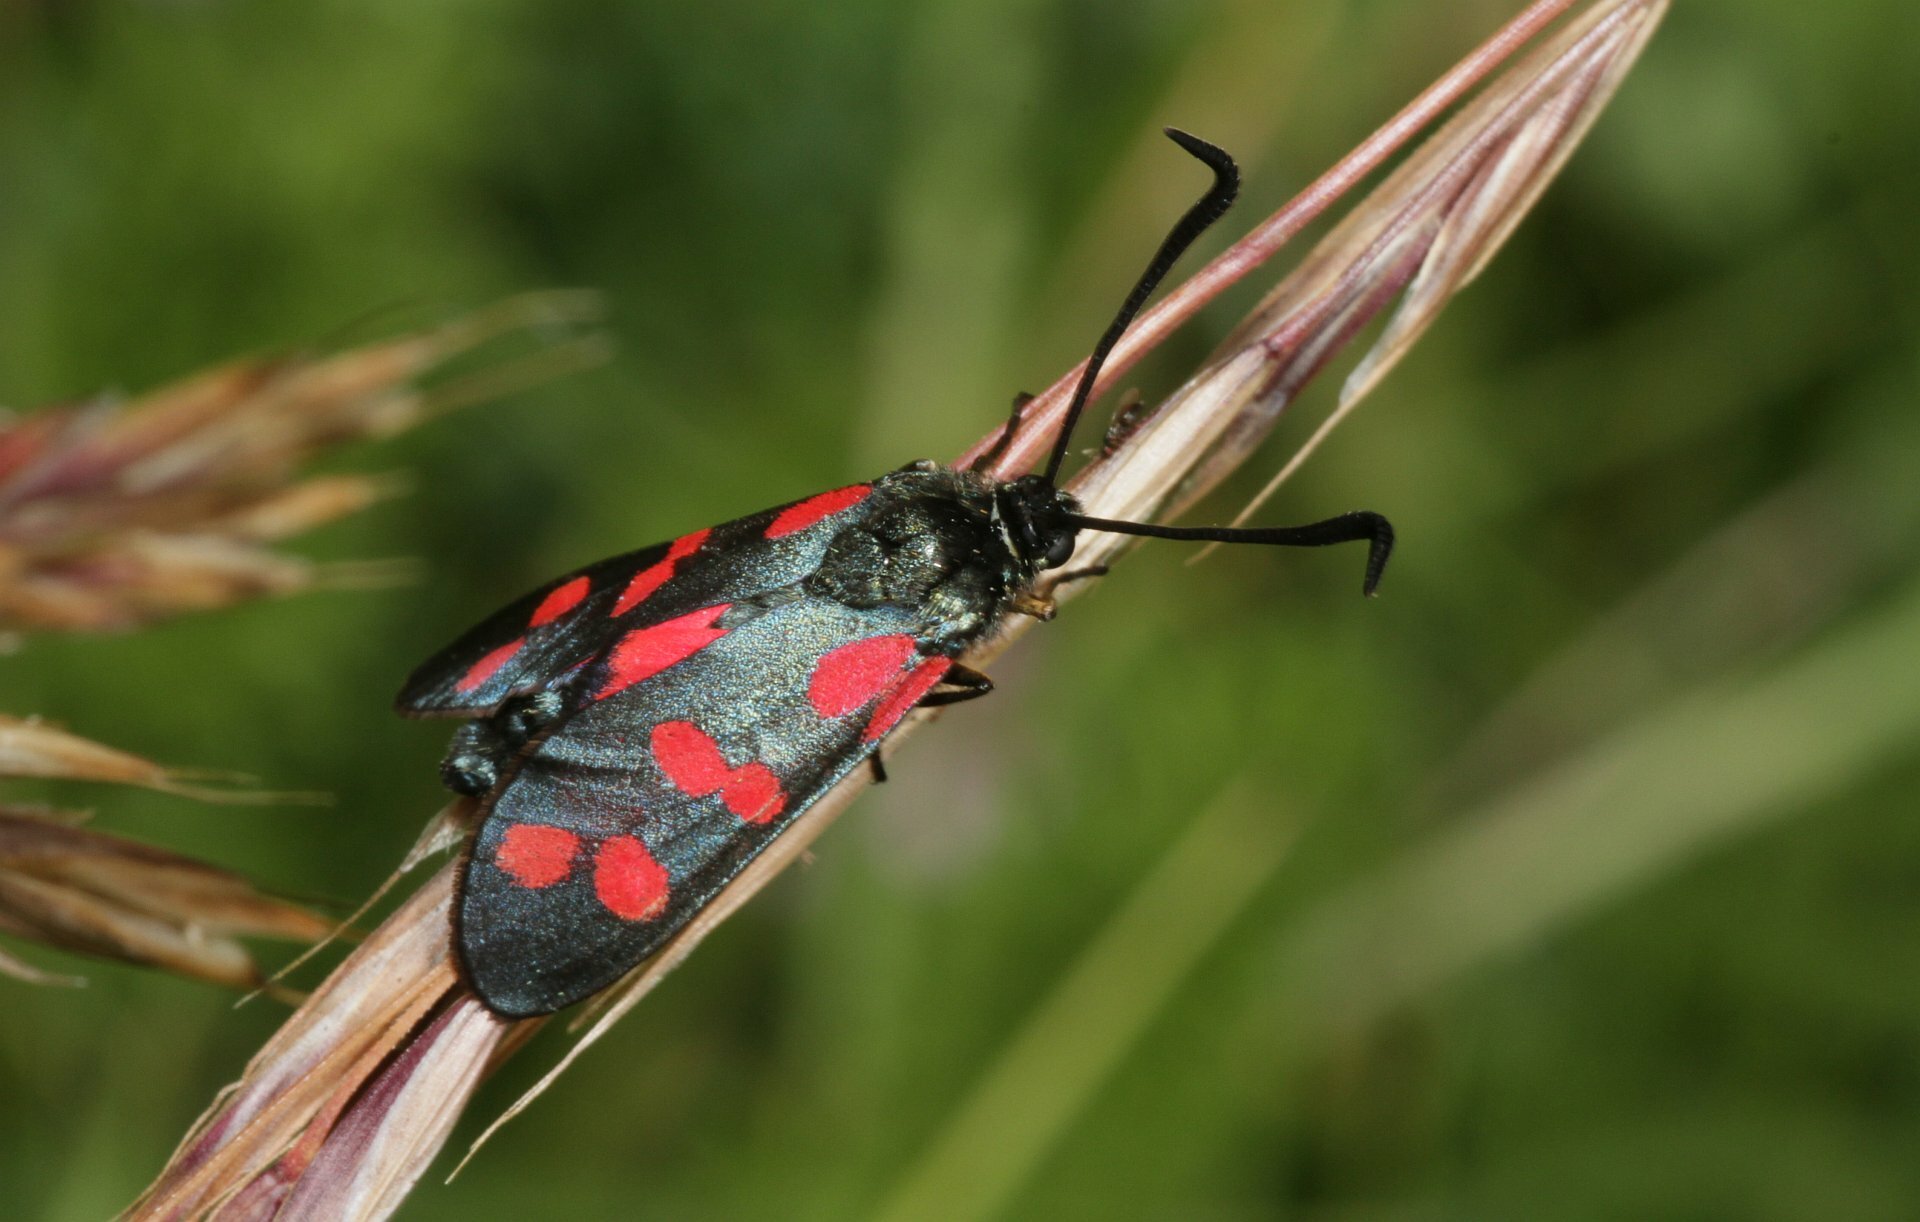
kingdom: Animalia
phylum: Arthropoda
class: Insecta
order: Lepidoptera
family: Zygaenidae
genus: Zygaena
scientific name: Zygaena filipendulae
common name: Six-spot burnet
